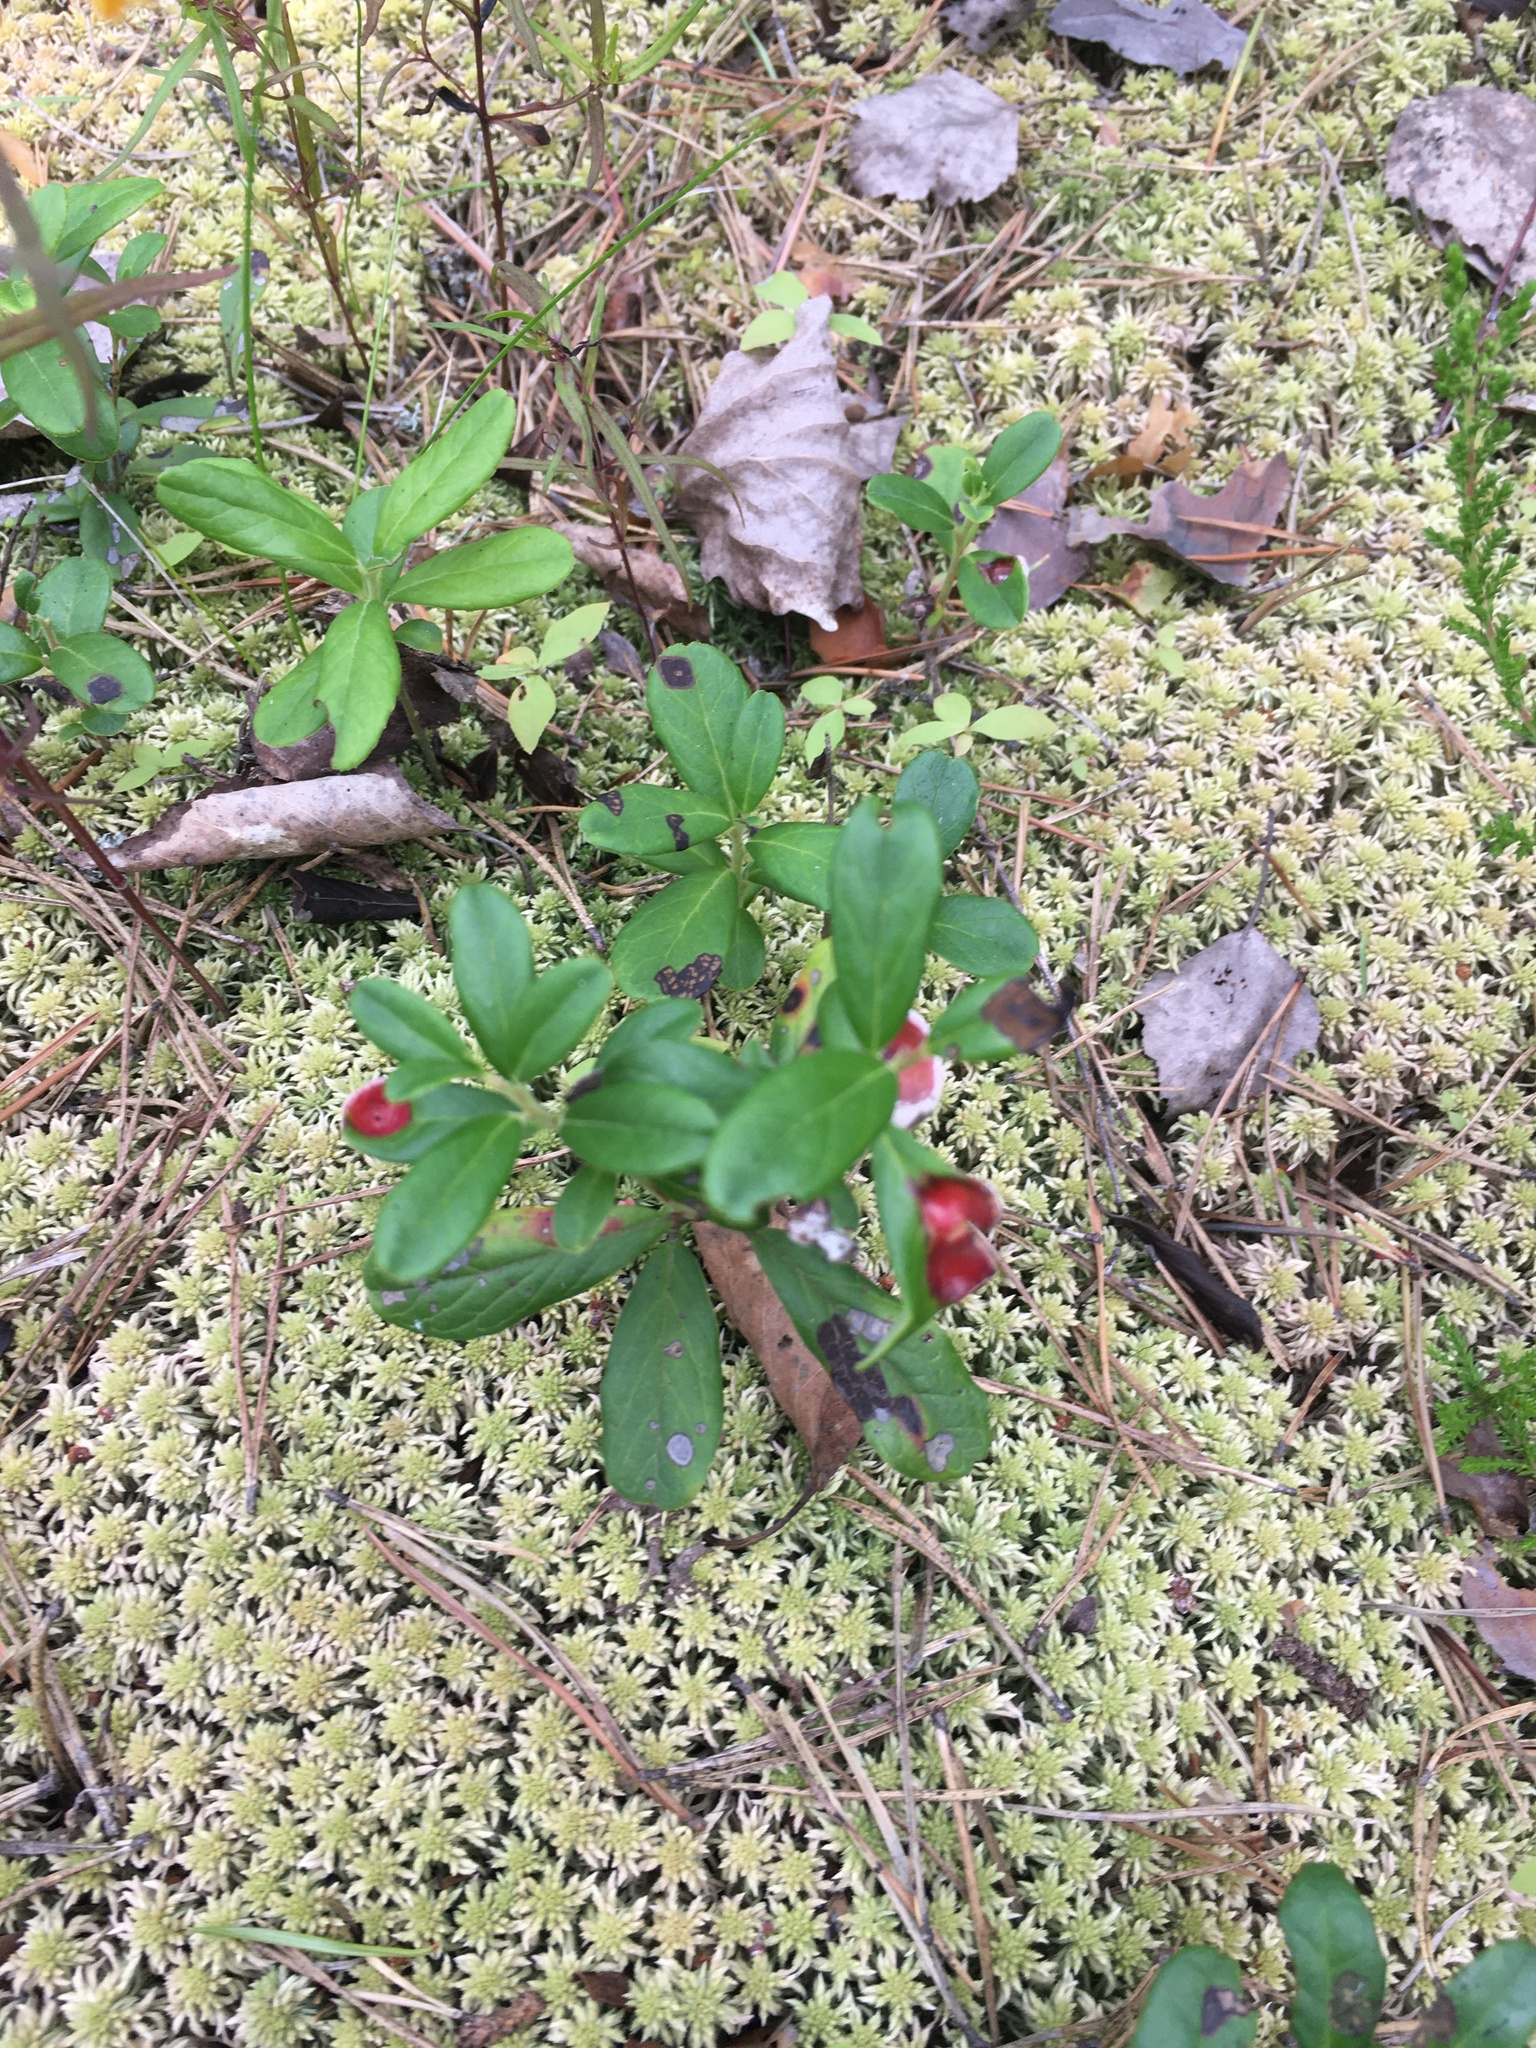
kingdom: Plantae
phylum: Tracheophyta
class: Magnoliopsida
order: Ericales
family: Ericaceae
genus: Vaccinium
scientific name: Vaccinium vitis-idaea
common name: Cowberry
